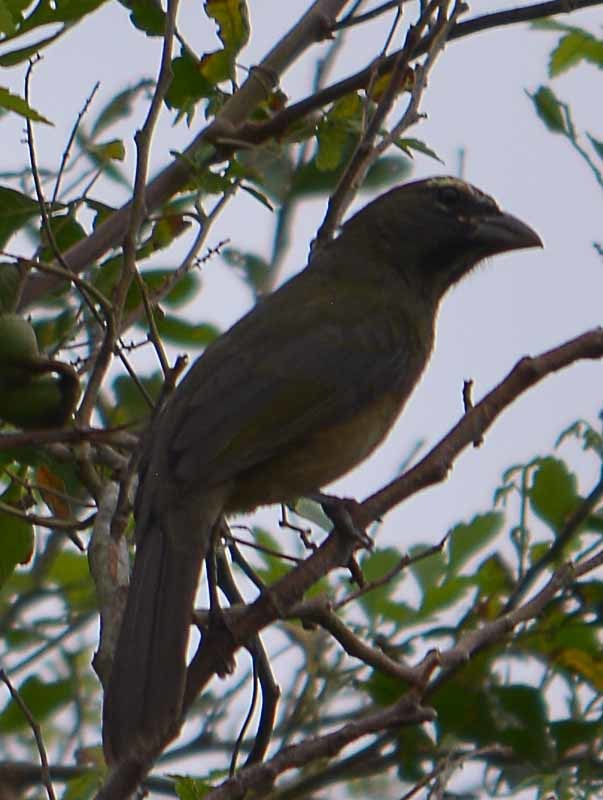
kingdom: Animalia
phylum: Chordata
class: Aves
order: Passeriformes
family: Thraupidae
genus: Saltator
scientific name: Saltator grandis
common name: Cinnamon-bellied saltator
